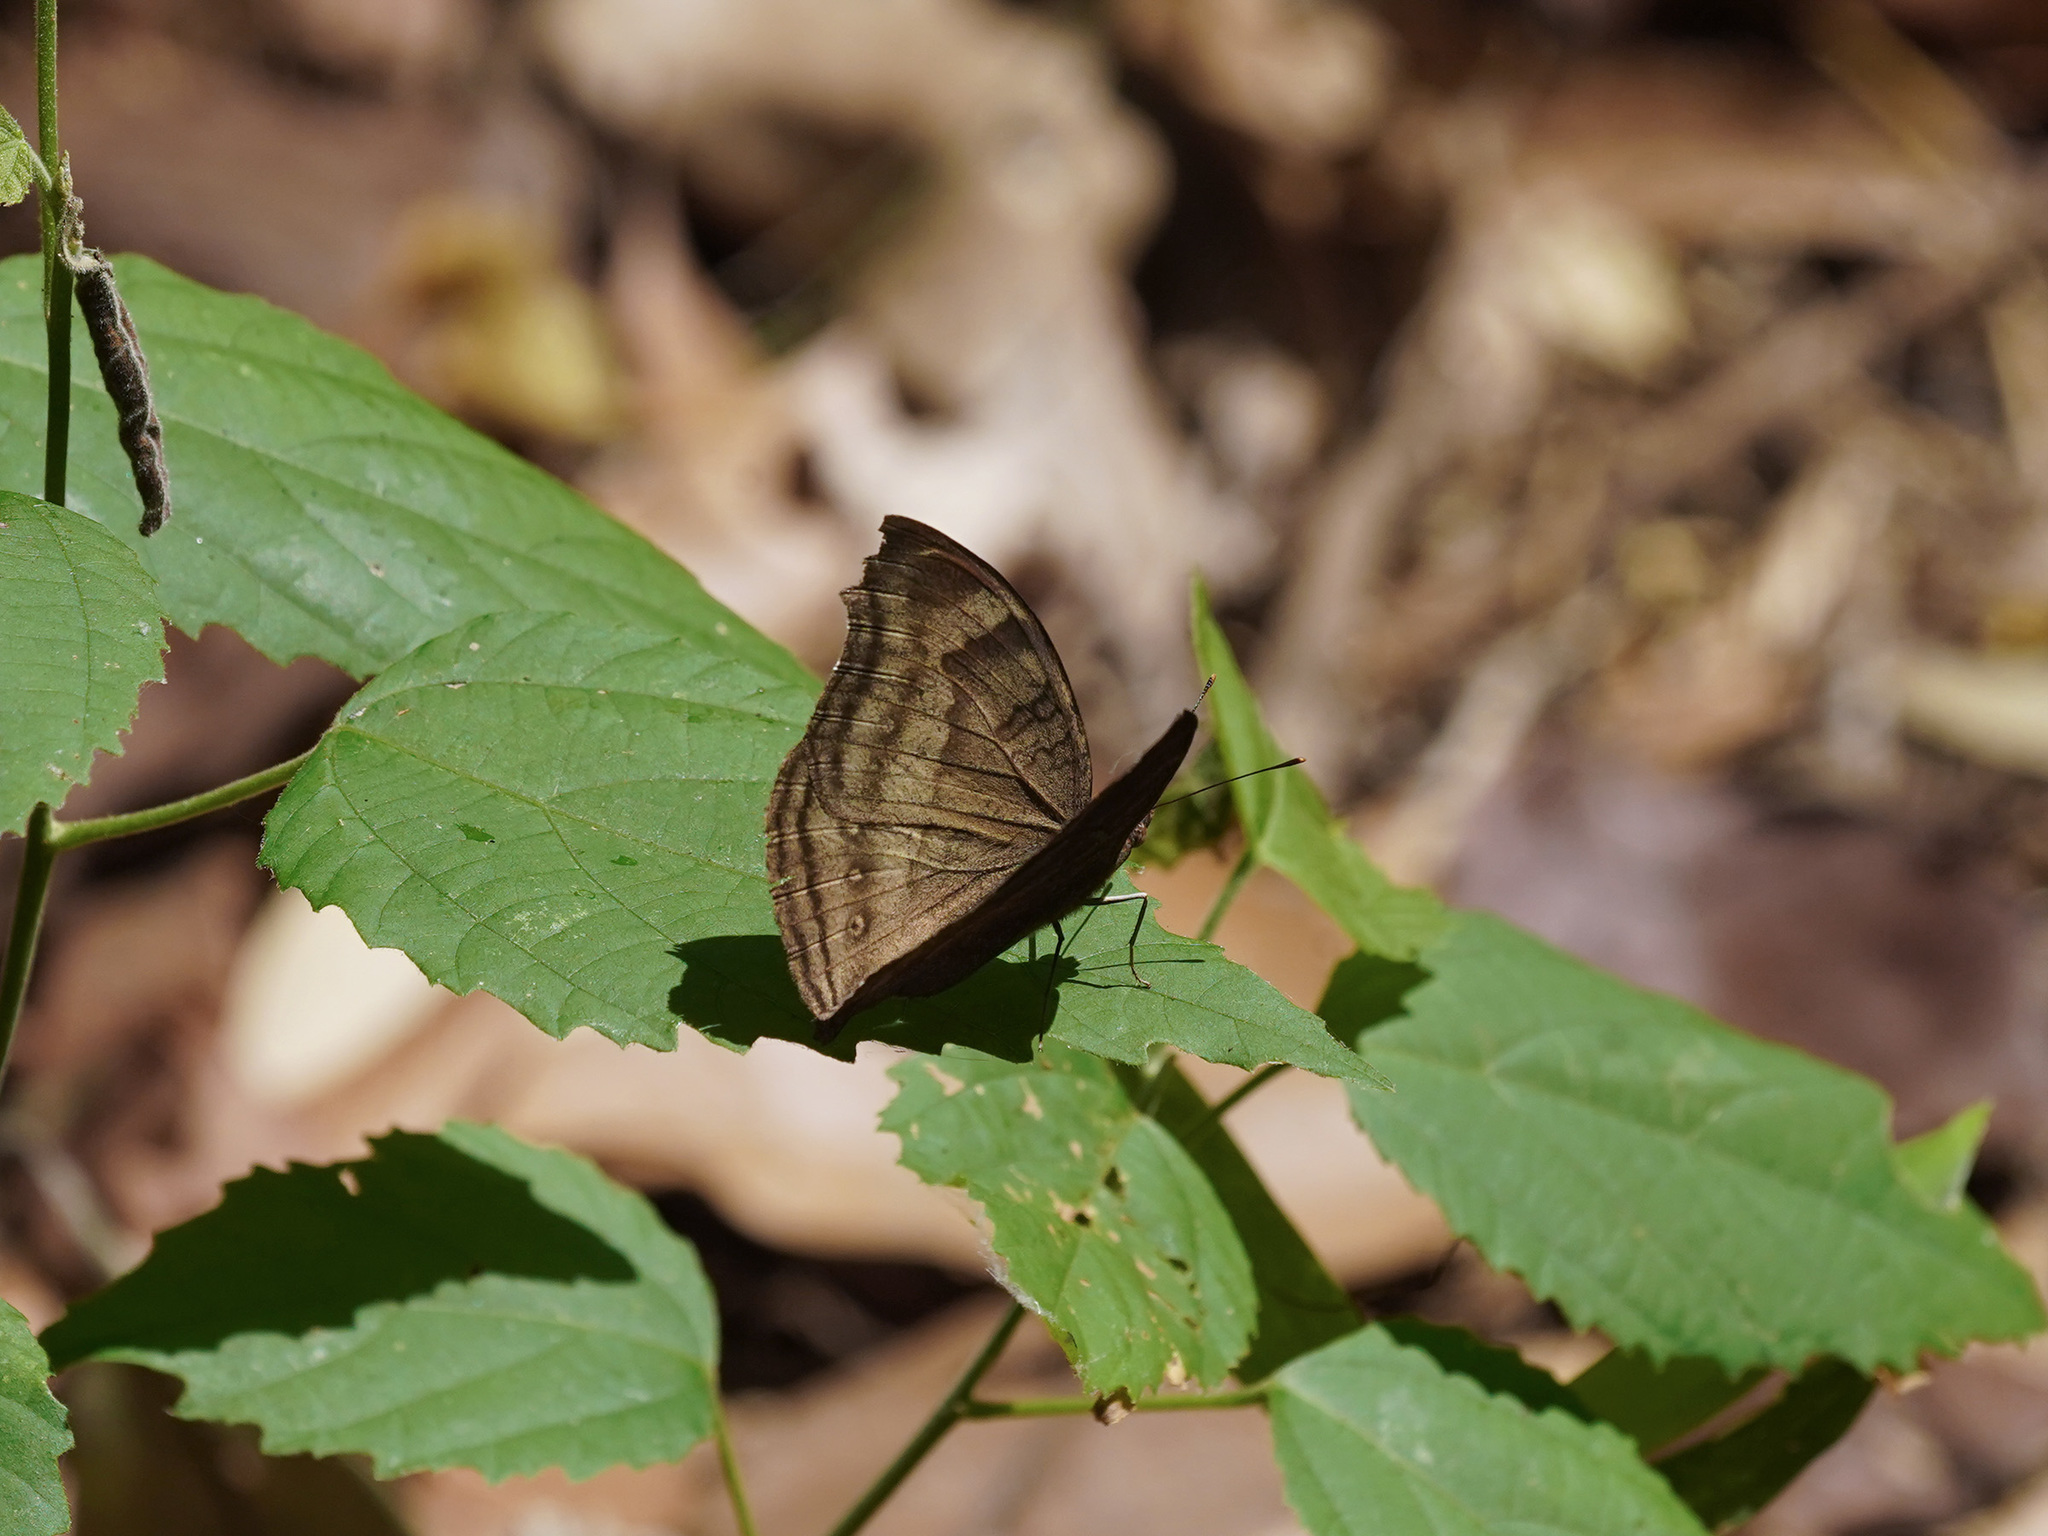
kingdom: Animalia
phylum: Arthropoda
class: Insecta
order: Lepidoptera
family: Nymphalidae
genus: Junonia
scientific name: Junonia iphita
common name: Chocolate pansy
